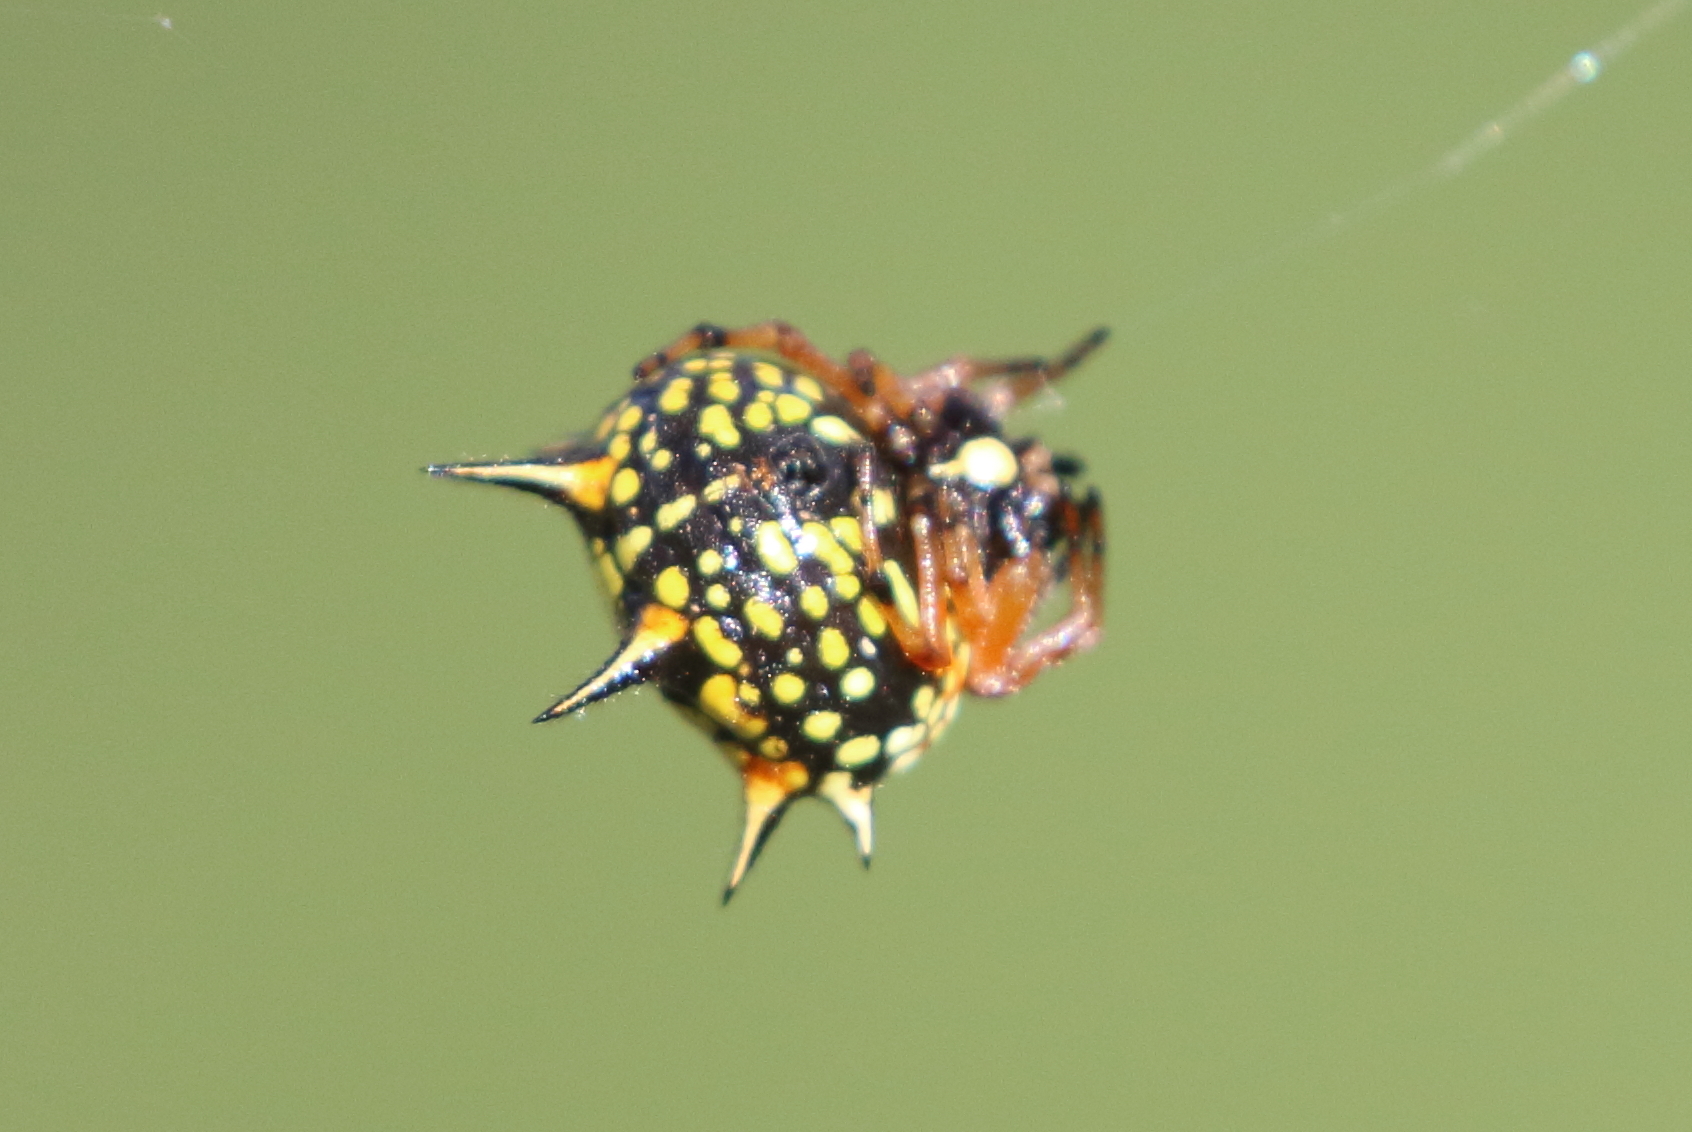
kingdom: Animalia
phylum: Arthropoda
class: Arachnida
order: Araneae
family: Araneidae
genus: Austracantha
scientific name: Austracantha minax
